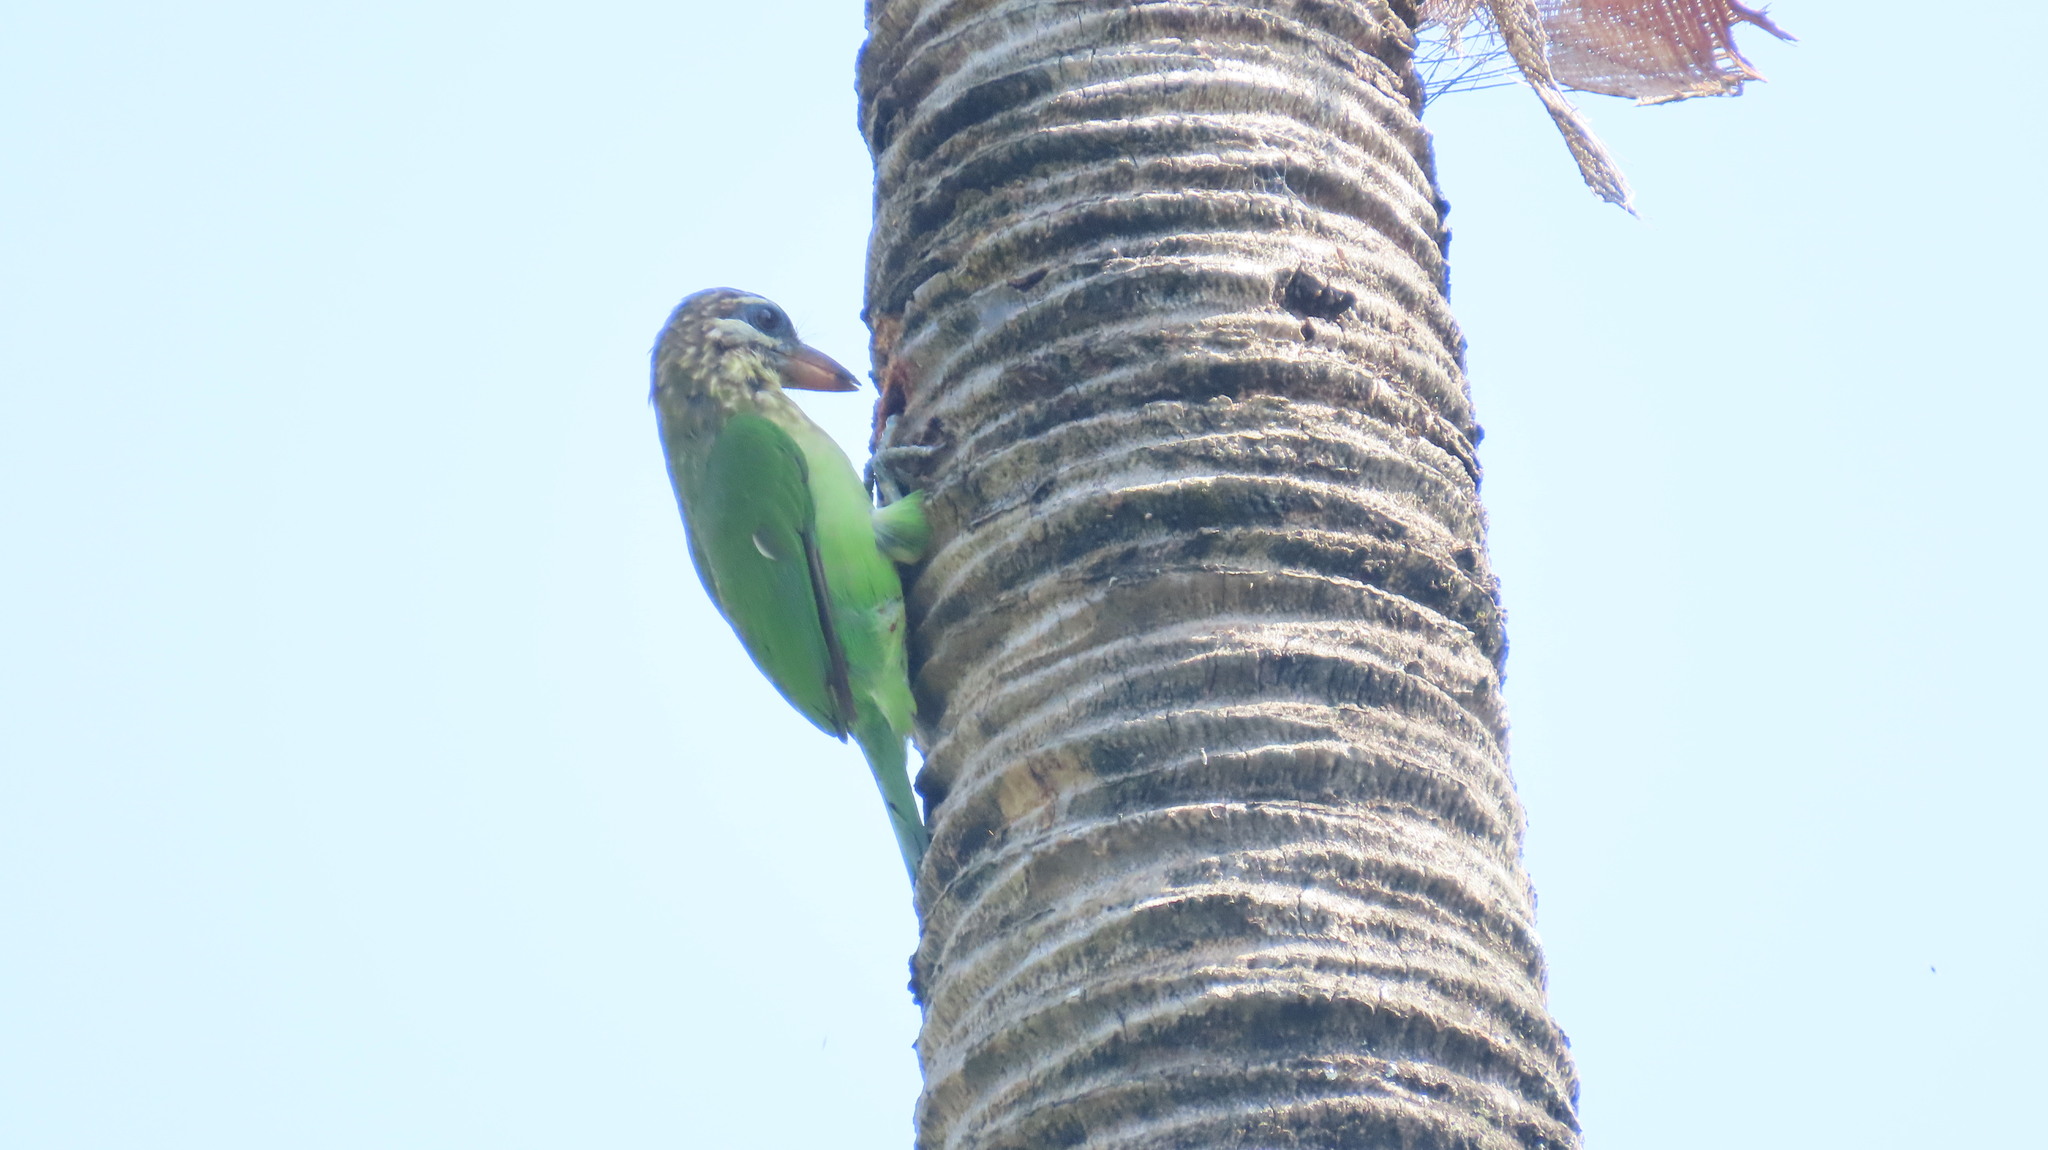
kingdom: Animalia
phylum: Chordata
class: Aves
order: Piciformes
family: Megalaimidae
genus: Psilopogon
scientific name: Psilopogon viridis
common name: White-cheeked barbet
